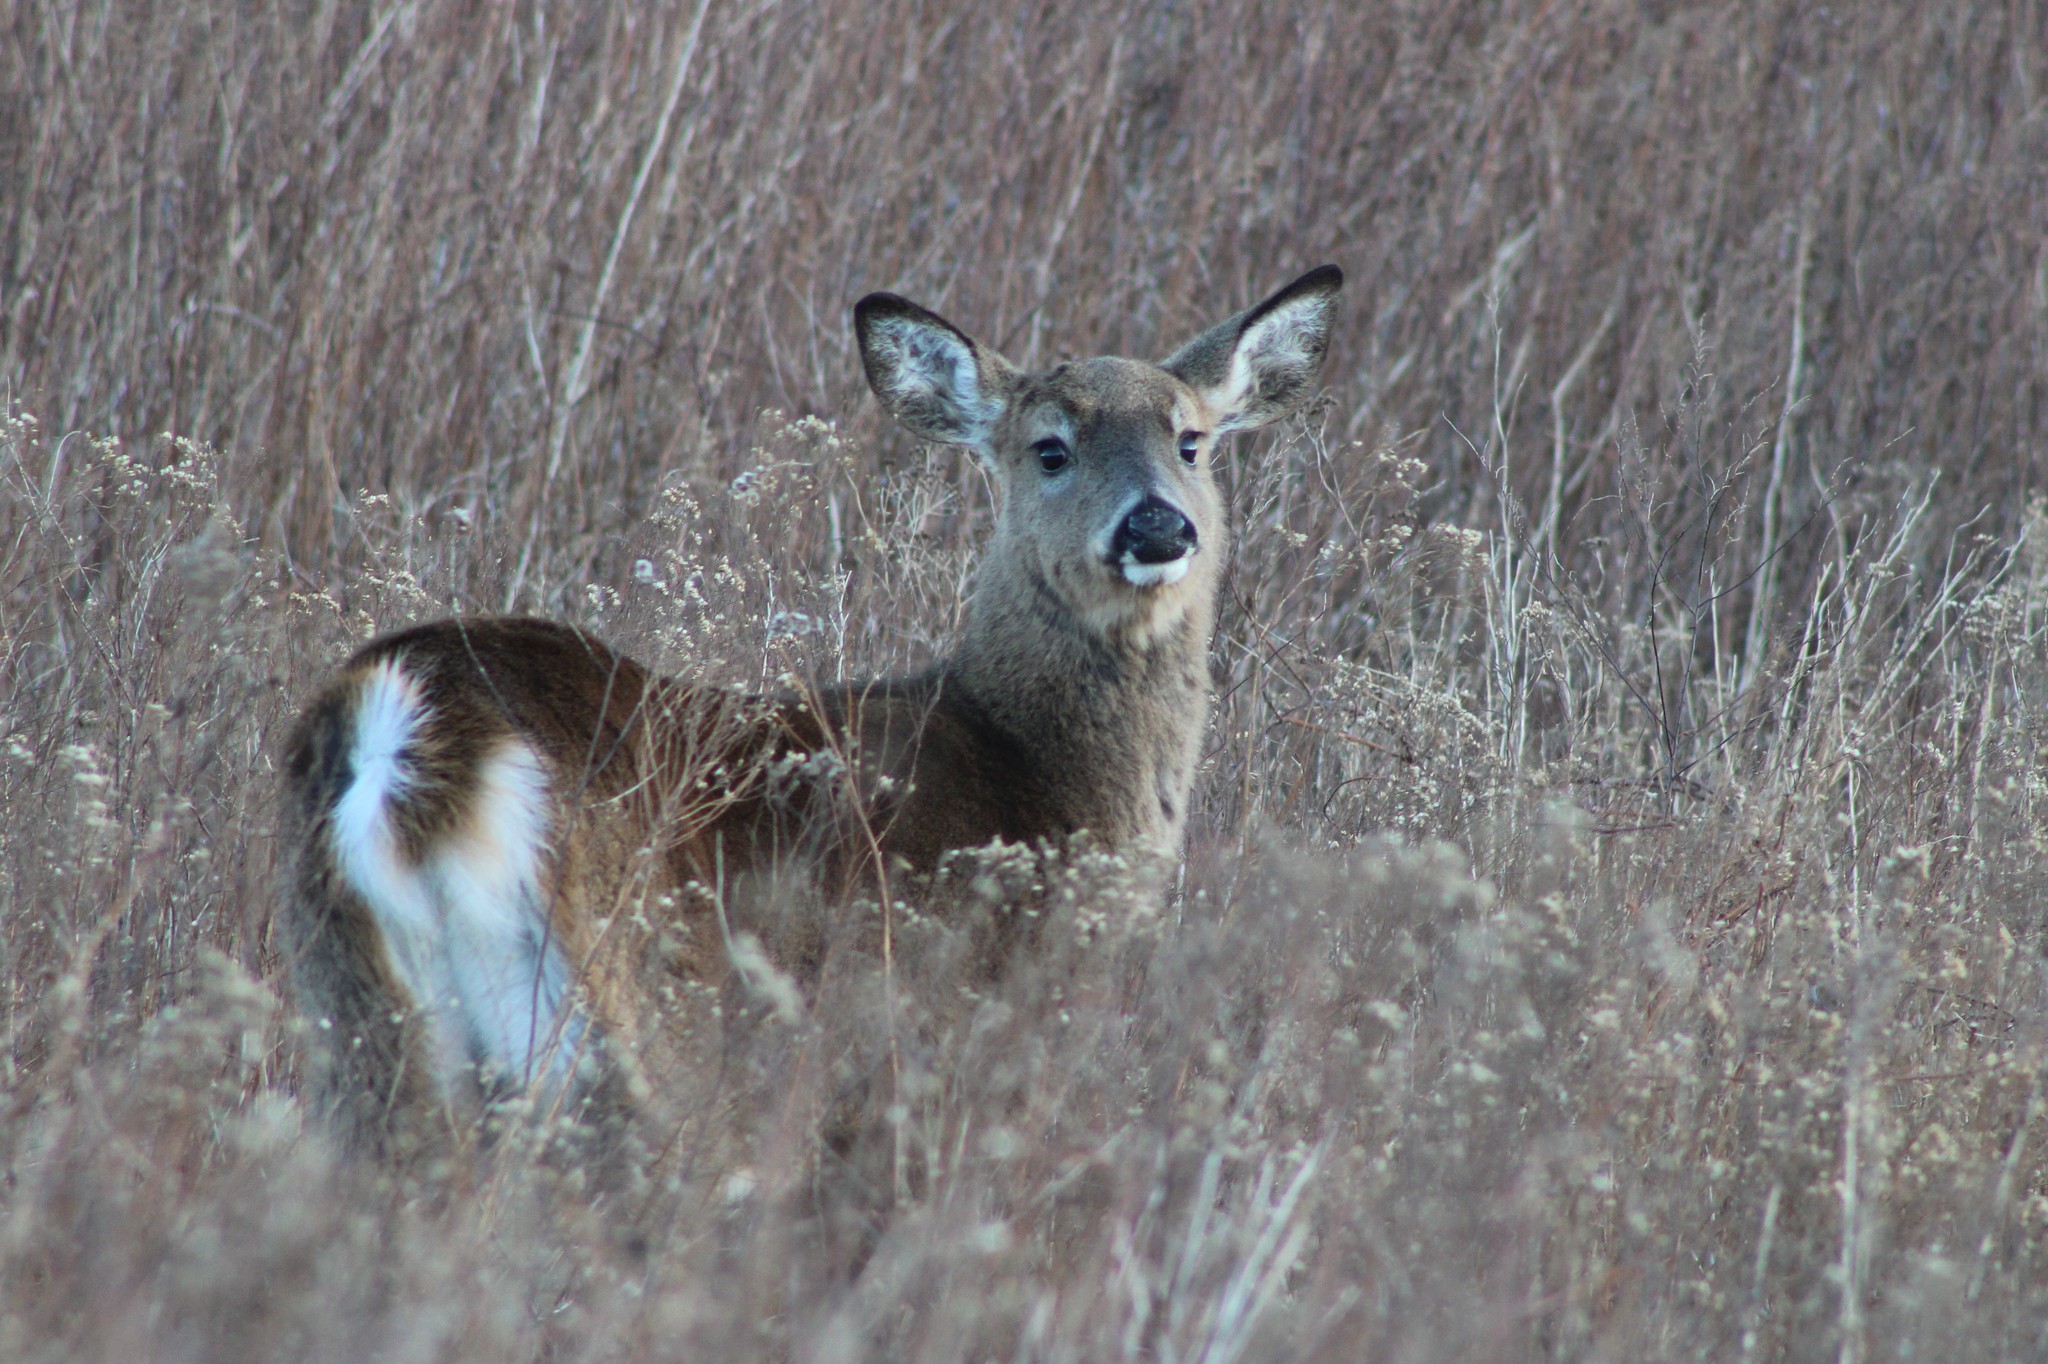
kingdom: Animalia
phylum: Chordata
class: Mammalia
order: Artiodactyla
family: Cervidae
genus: Odocoileus
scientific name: Odocoileus virginianus
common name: White-tailed deer
